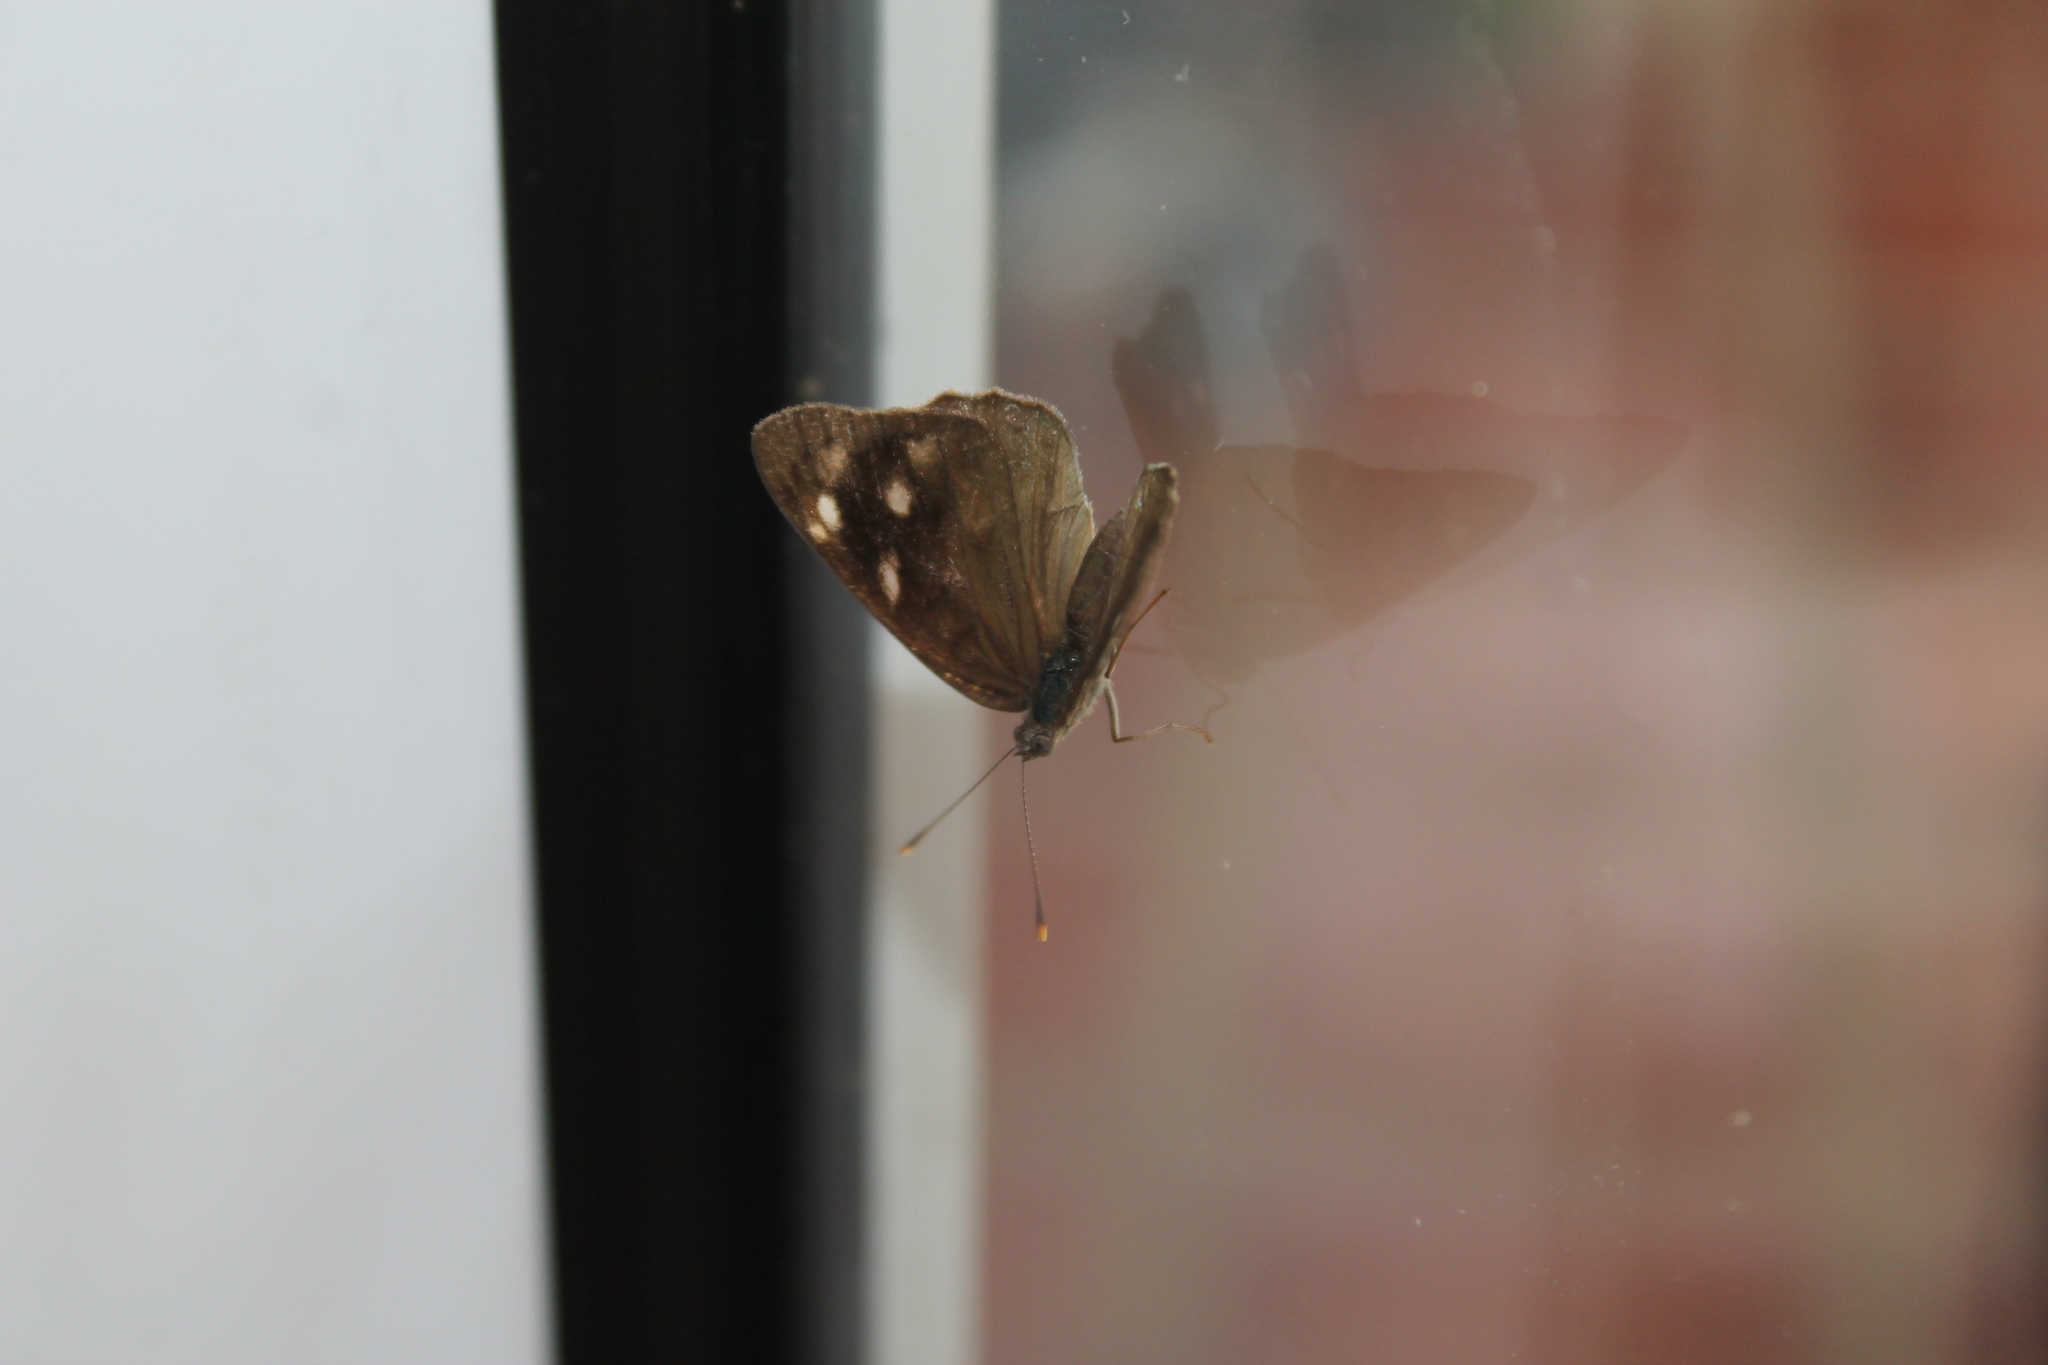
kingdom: Animalia
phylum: Arthropoda
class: Insecta
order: Lepidoptera
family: Nymphalidae
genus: Eunica
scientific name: Eunica monima
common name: Dingy purplewing
